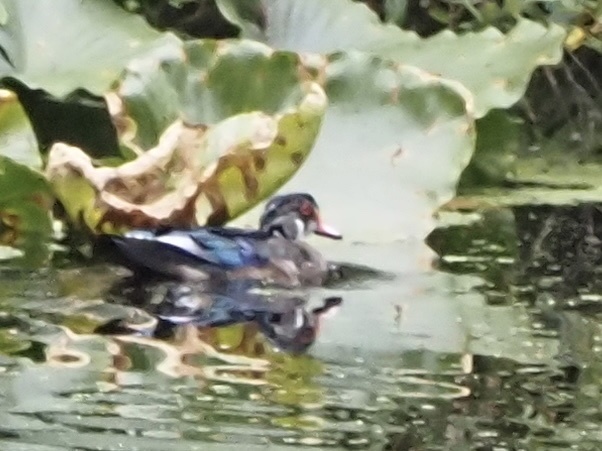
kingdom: Animalia
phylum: Chordata
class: Aves
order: Anseriformes
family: Anatidae
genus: Aix
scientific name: Aix sponsa
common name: Wood duck
